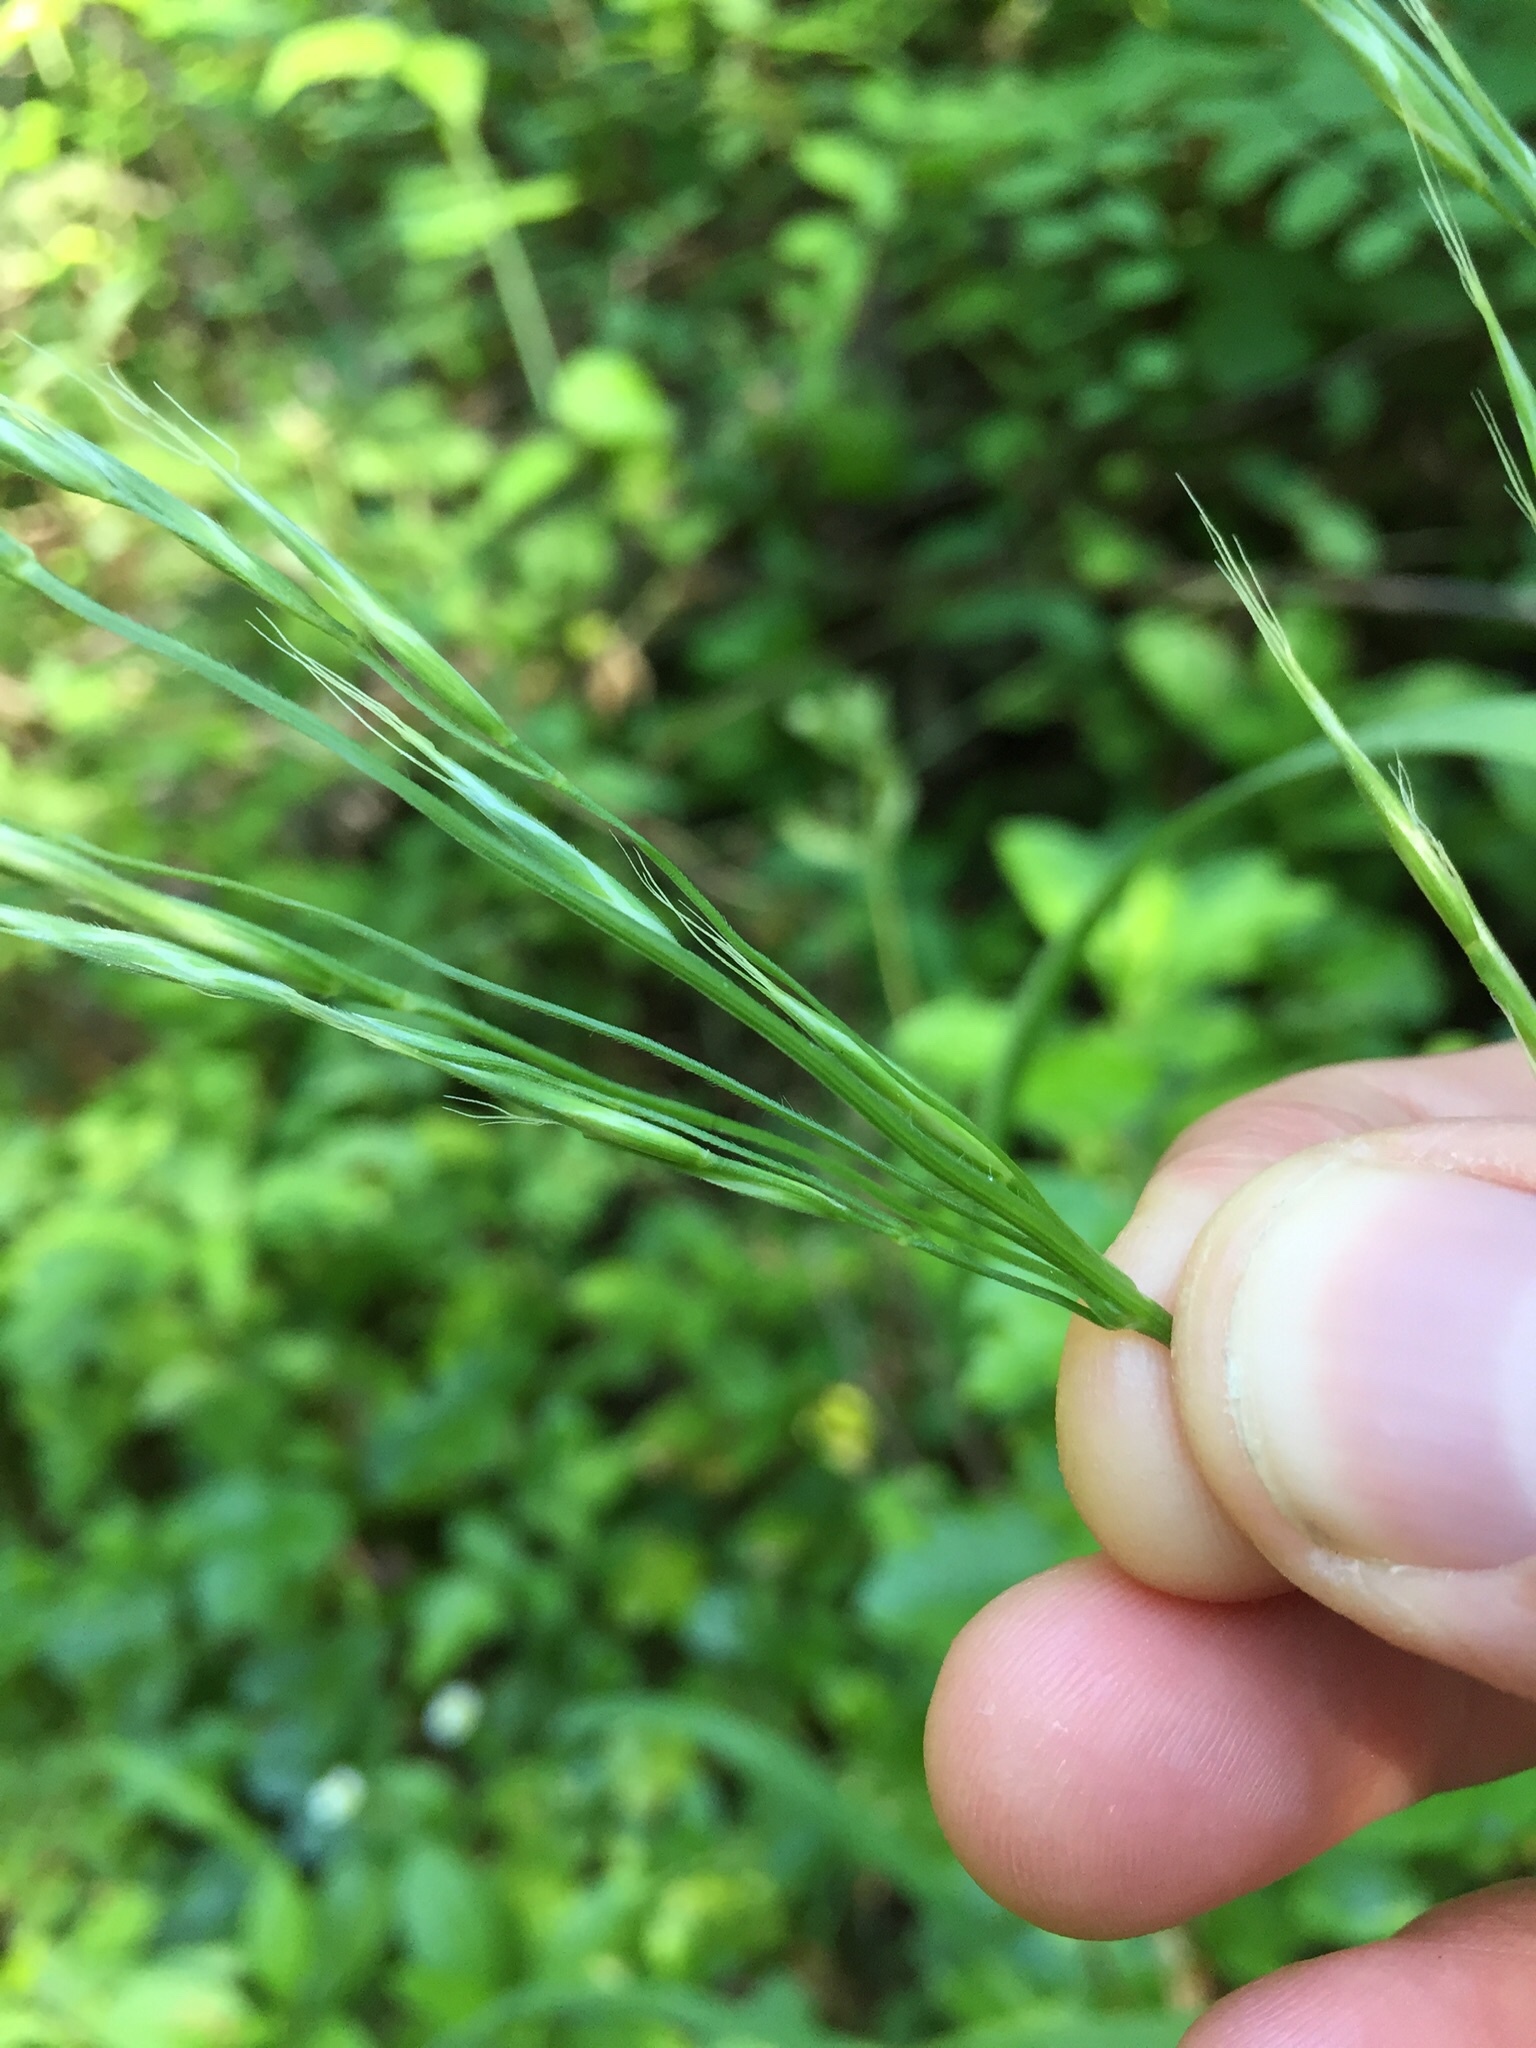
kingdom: Plantae
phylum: Tracheophyta
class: Liliopsida
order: Poales
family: Poaceae
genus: Bromus
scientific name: Bromus pseudolaevipes
